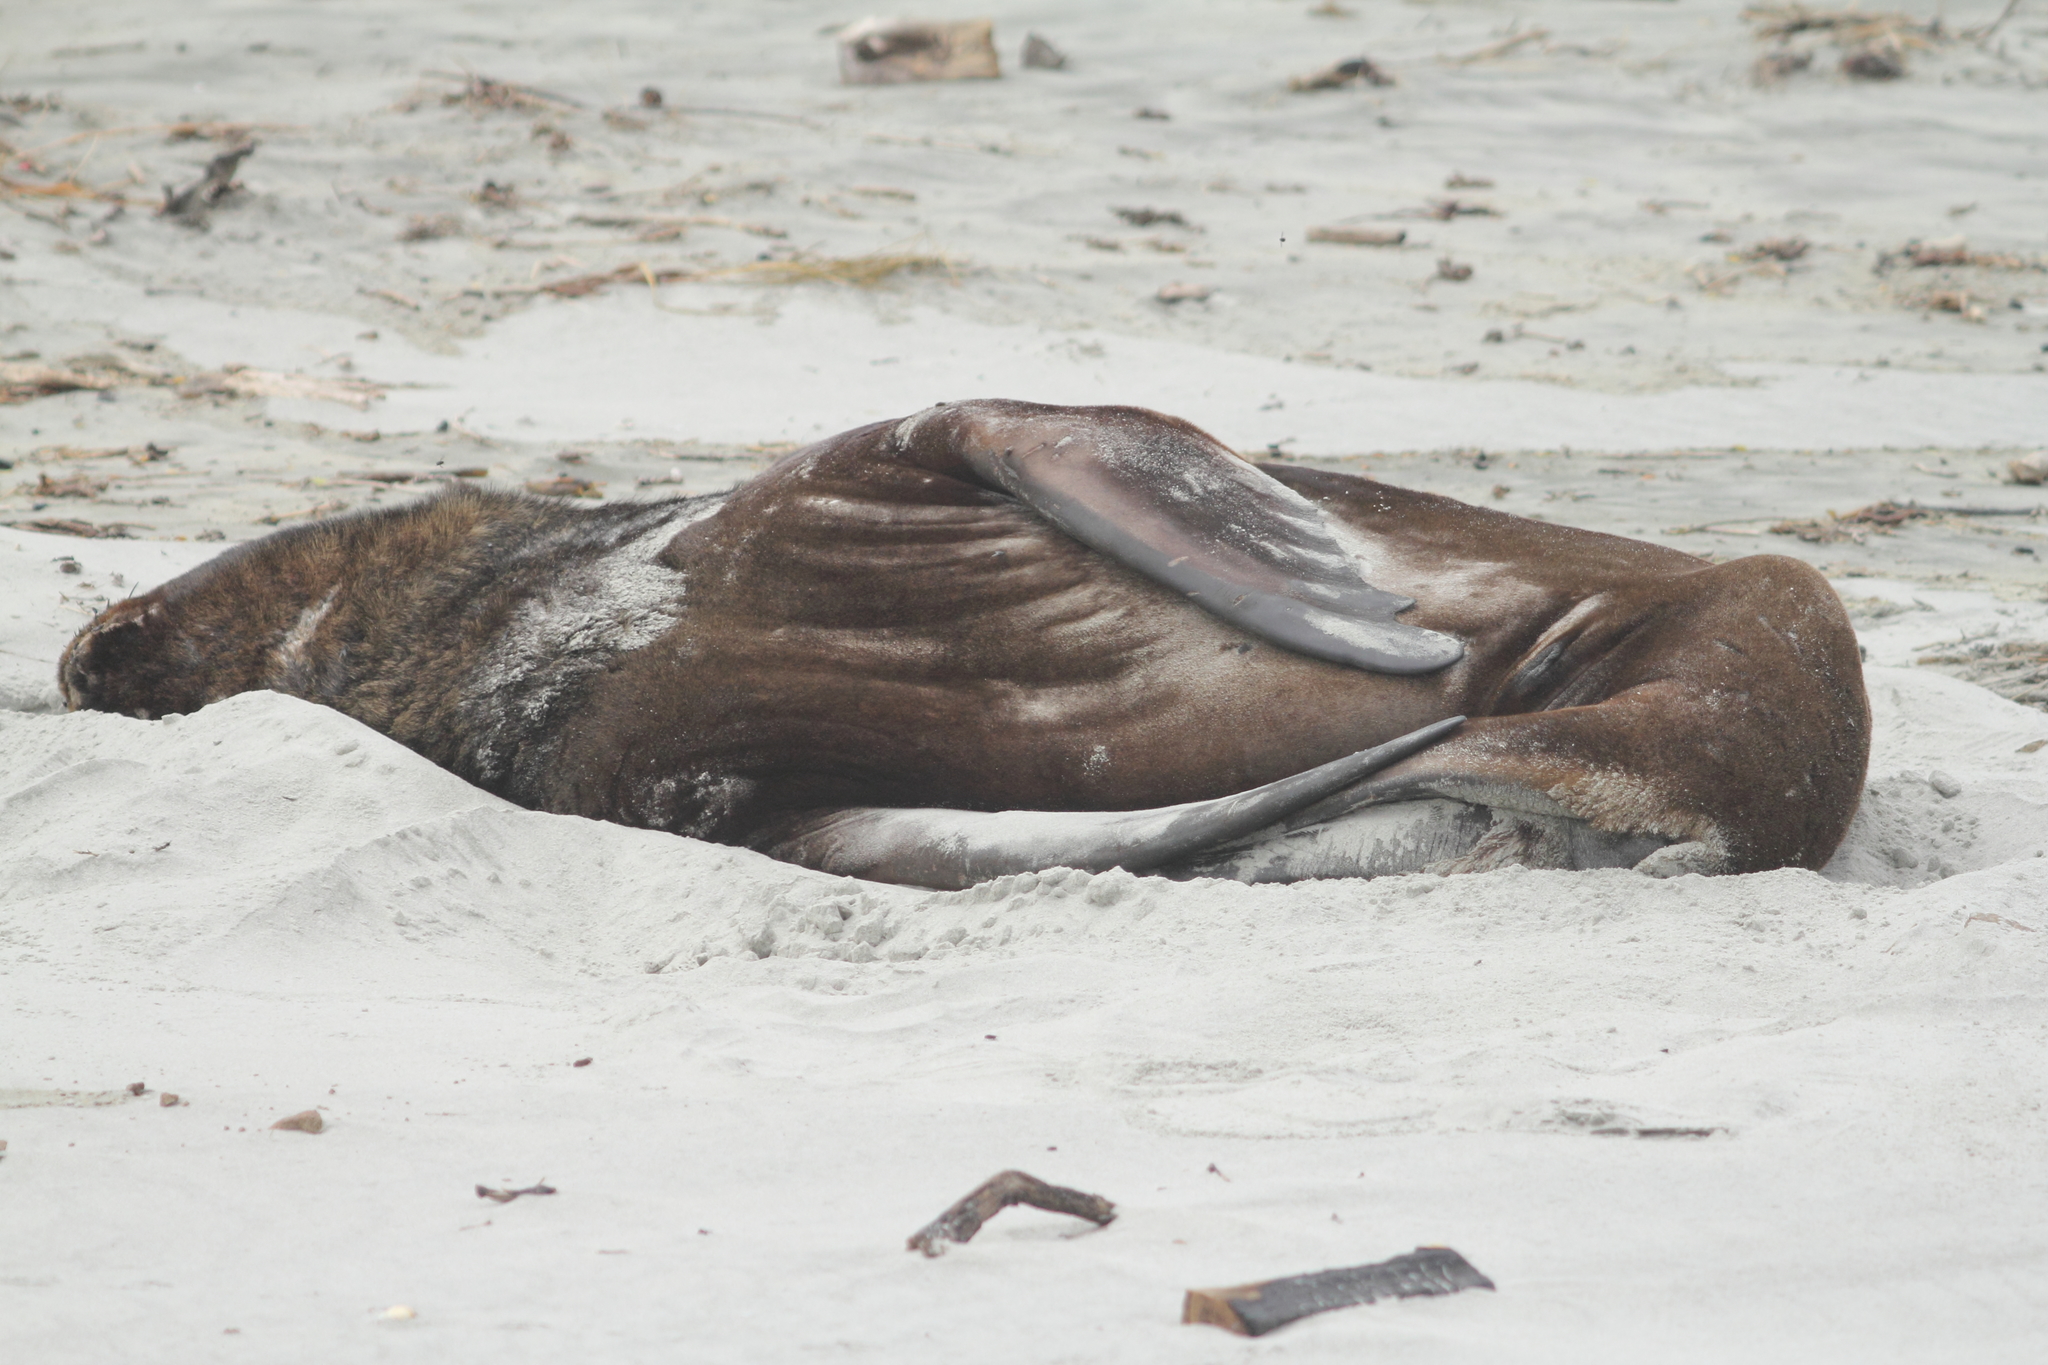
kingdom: Animalia
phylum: Chordata
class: Mammalia
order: Carnivora
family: Otariidae
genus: Phocarctos
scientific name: Phocarctos hookeri
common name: New zealand sea lion
